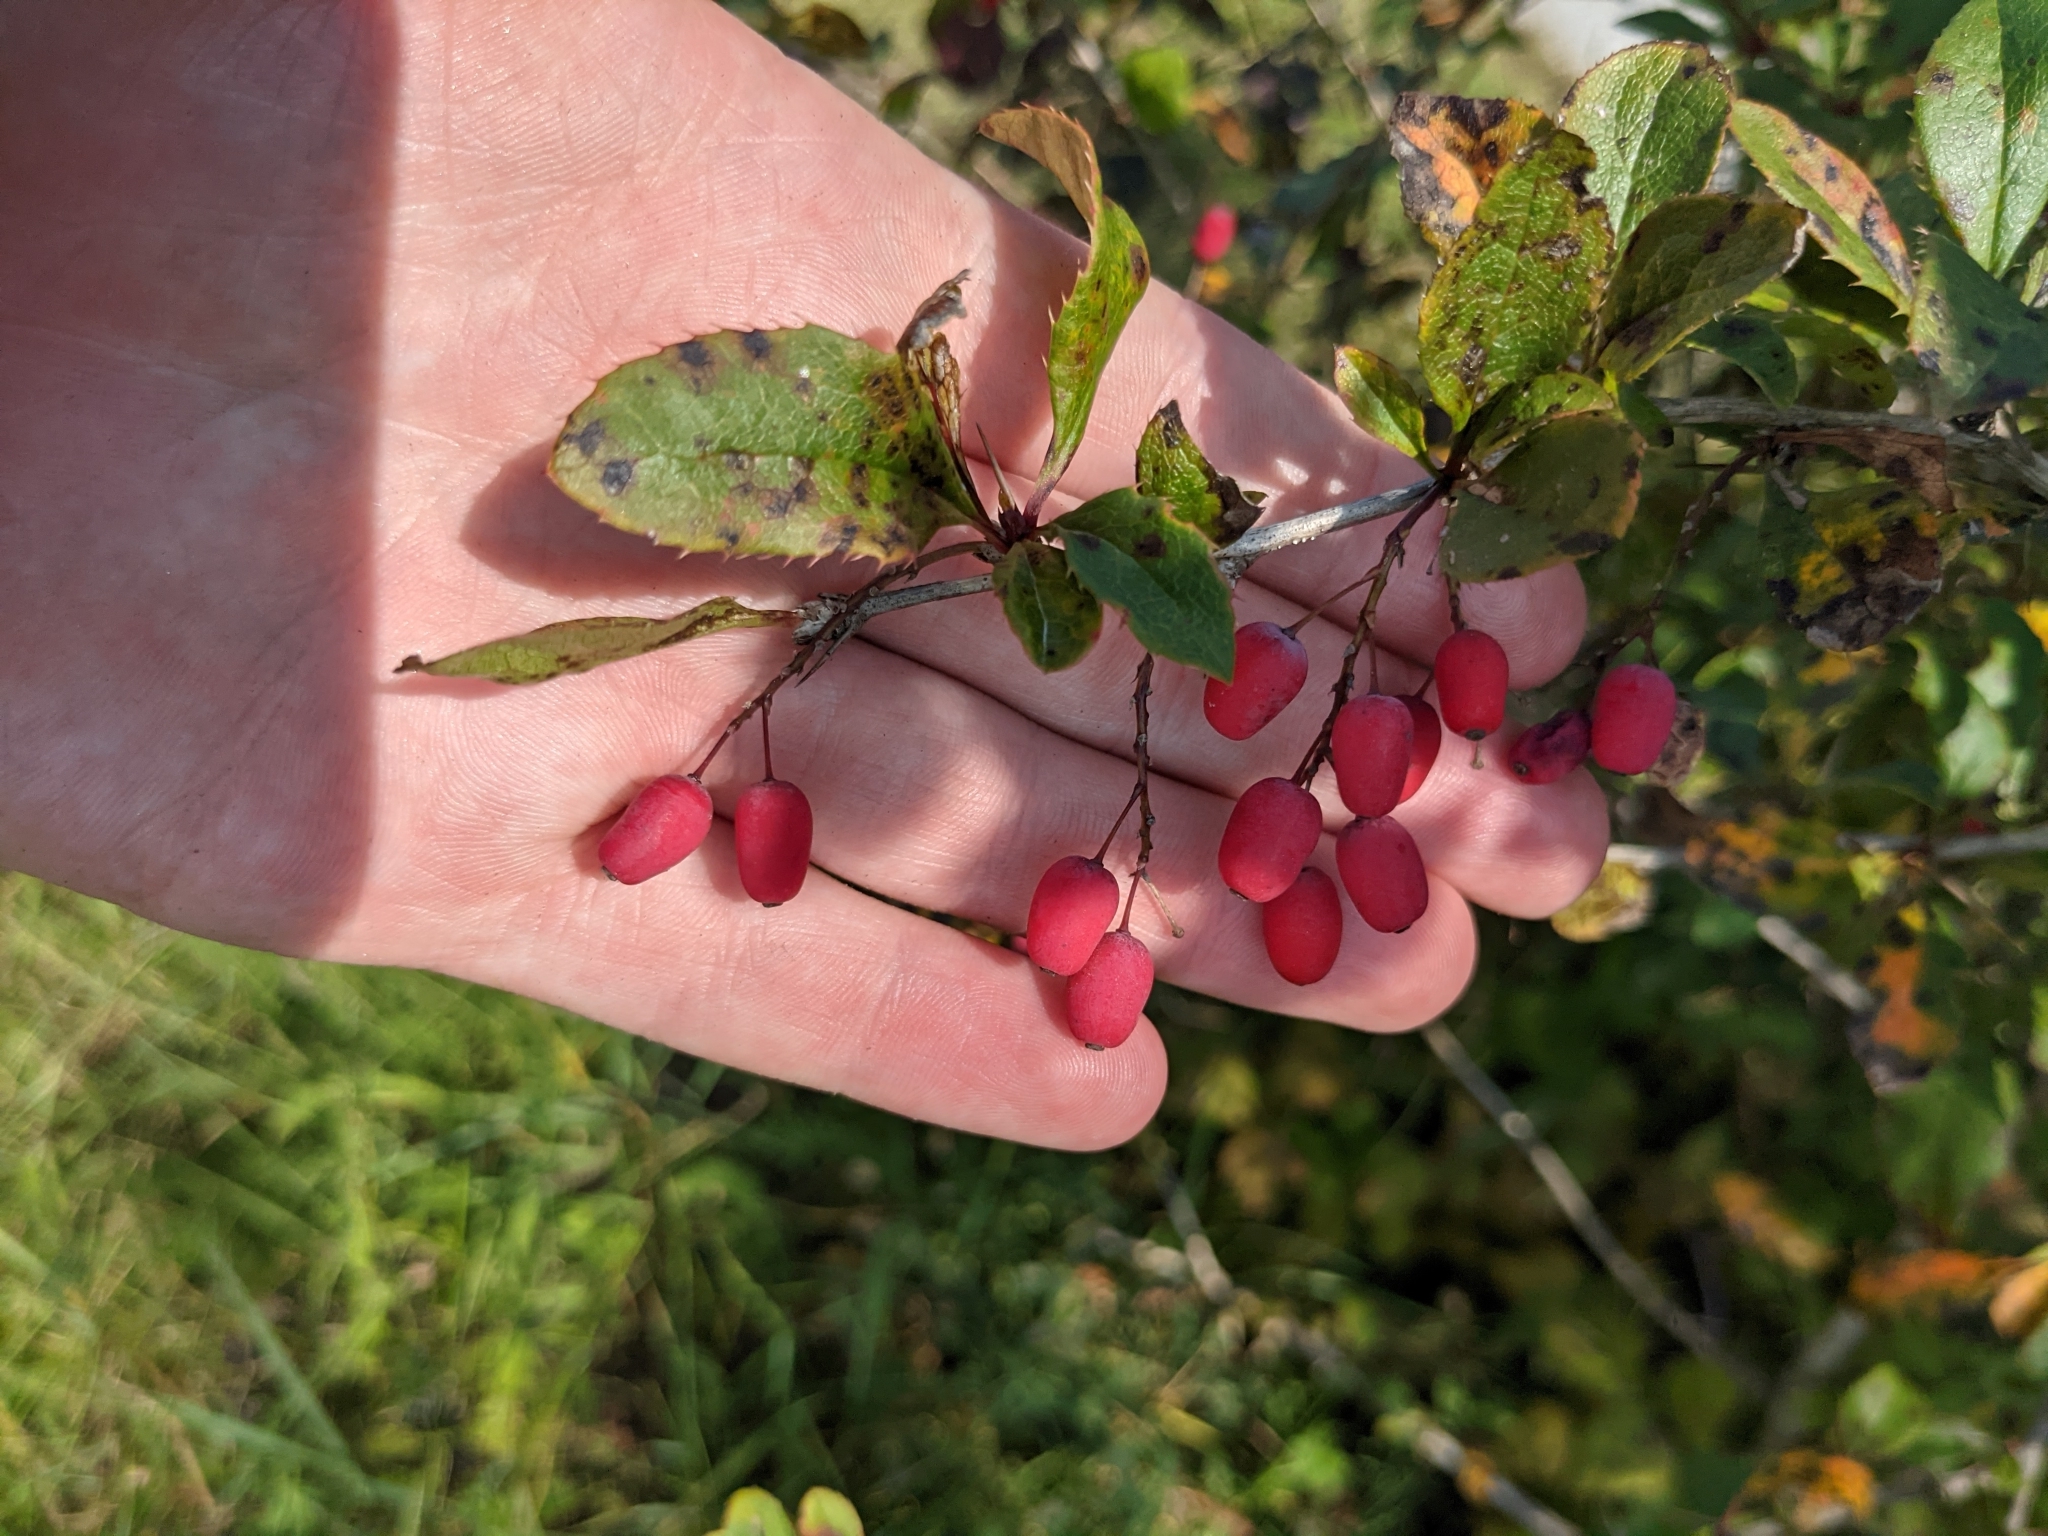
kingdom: Plantae
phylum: Tracheophyta
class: Magnoliopsida
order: Ranunculales
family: Berberidaceae
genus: Berberis
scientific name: Berberis vulgaris
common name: Barberry
